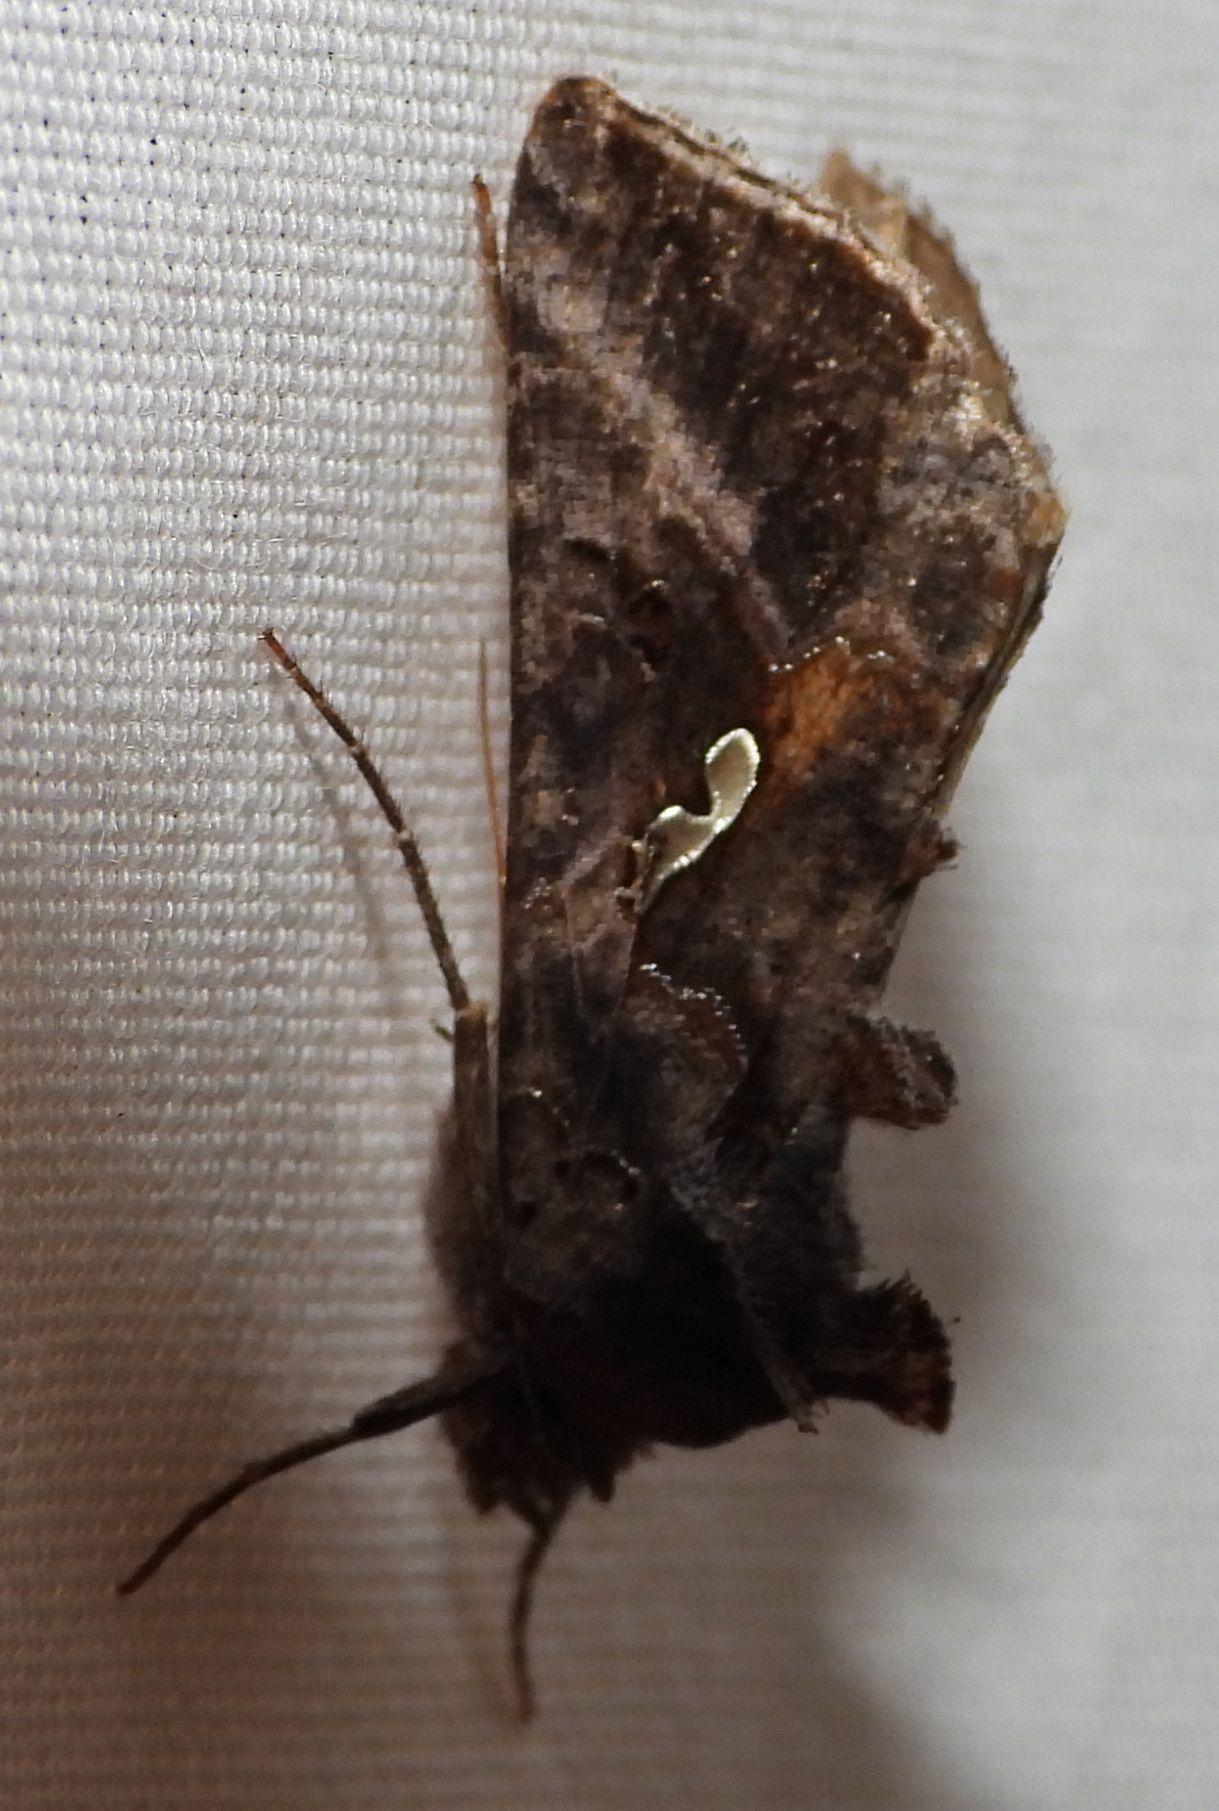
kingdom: Animalia
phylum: Arthropoda
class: Insecta
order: Lepidoptera
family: Noctuidae
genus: Autographa
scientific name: Autographa precationis
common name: Common looper moth
